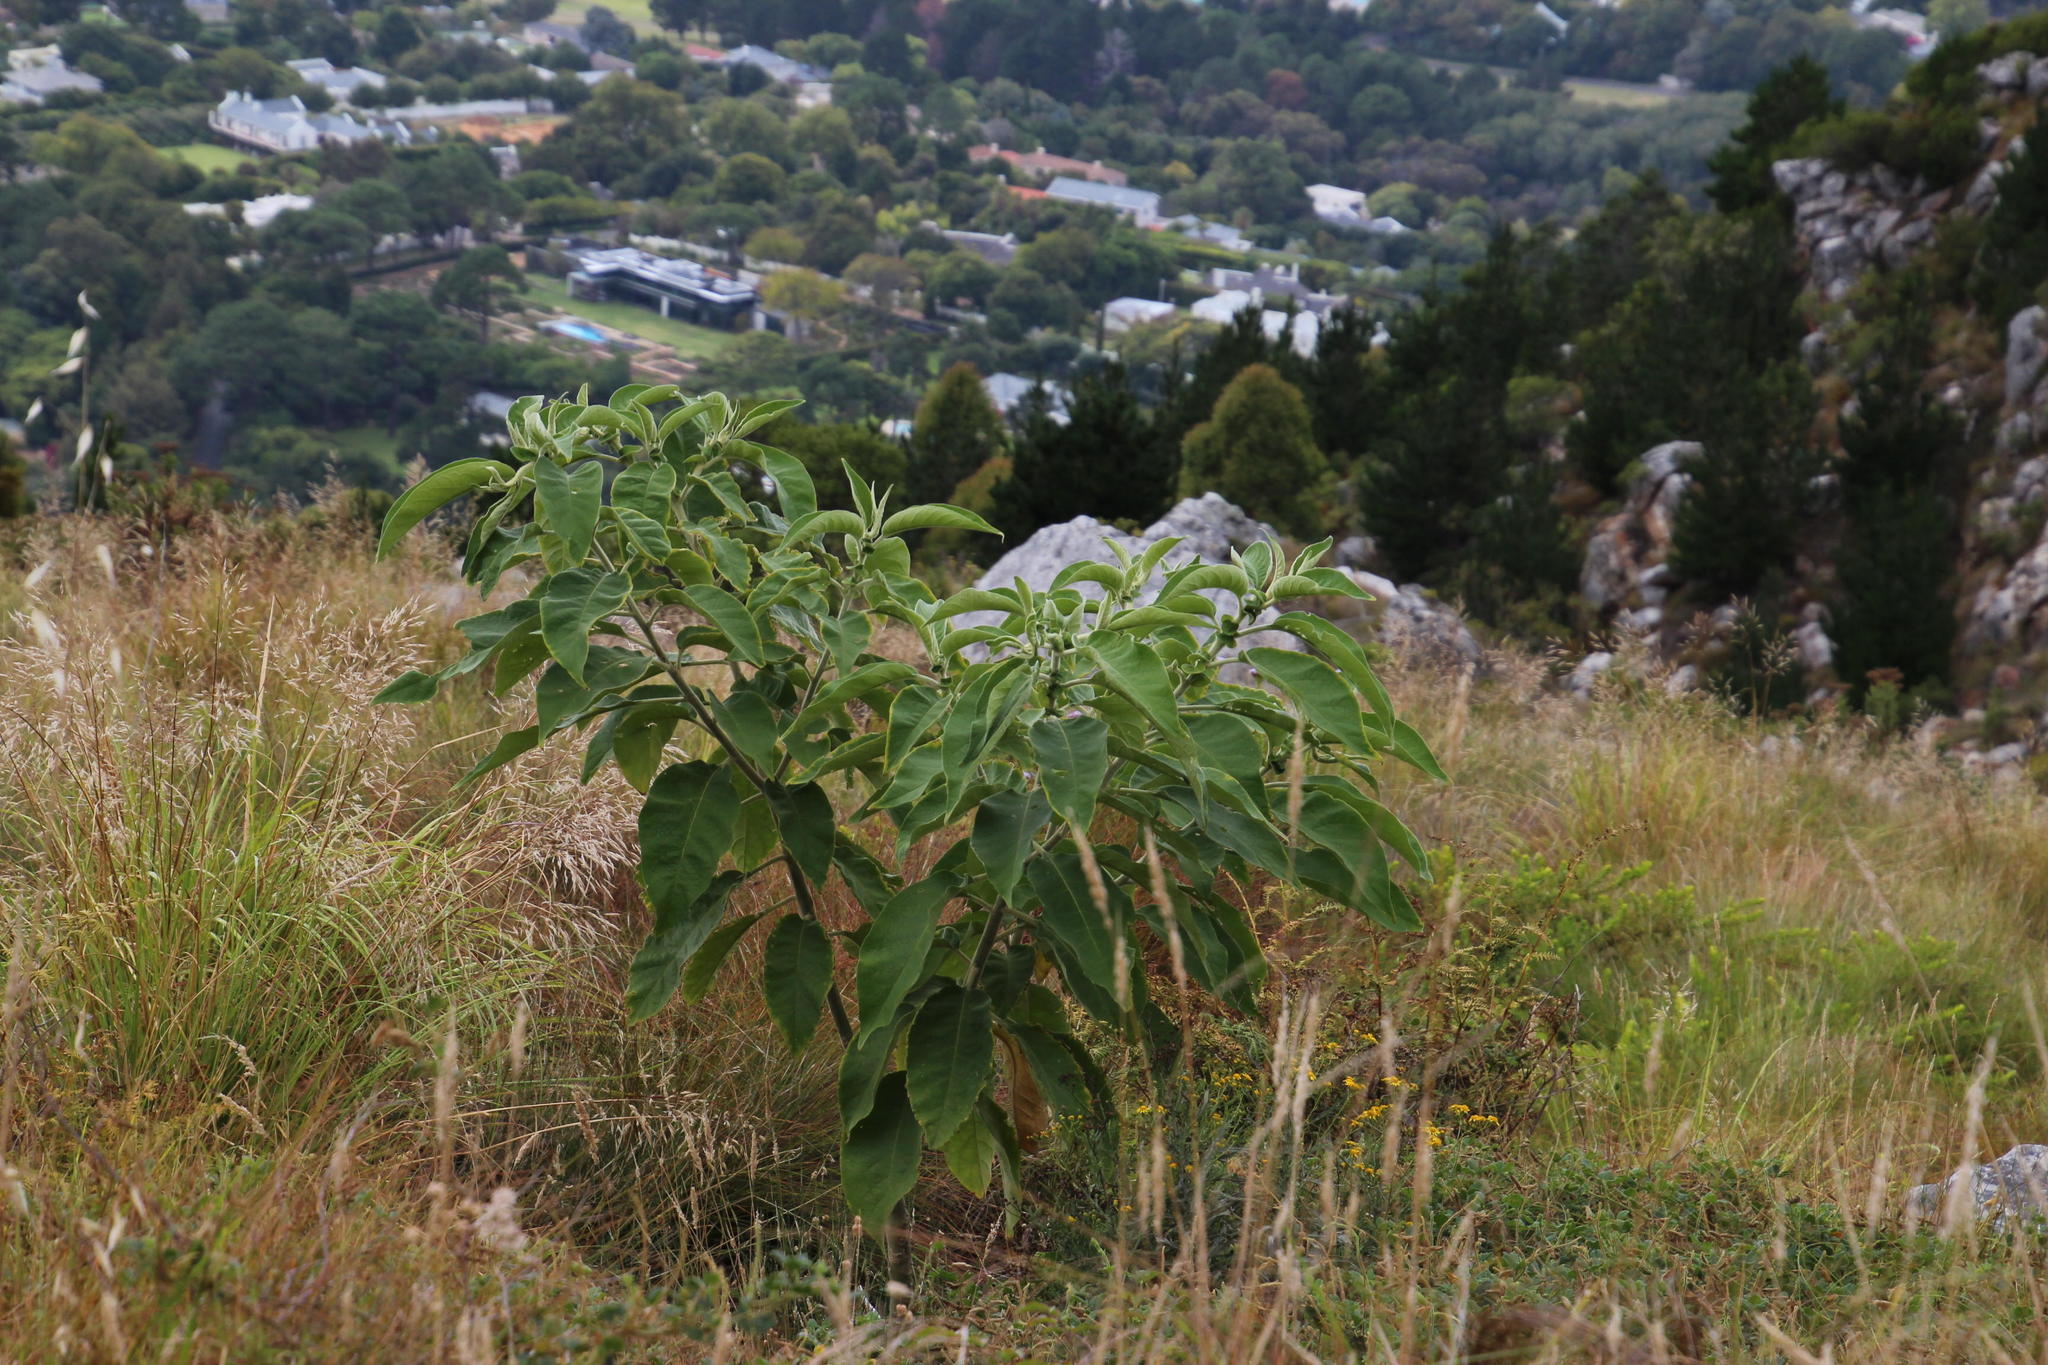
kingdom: Plantae
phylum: Tracheophyta
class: Magnoliopsida
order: Solanales
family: Solanaceae
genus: Solanum
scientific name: Solanum mauritianum
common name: Earleaf nightshade
